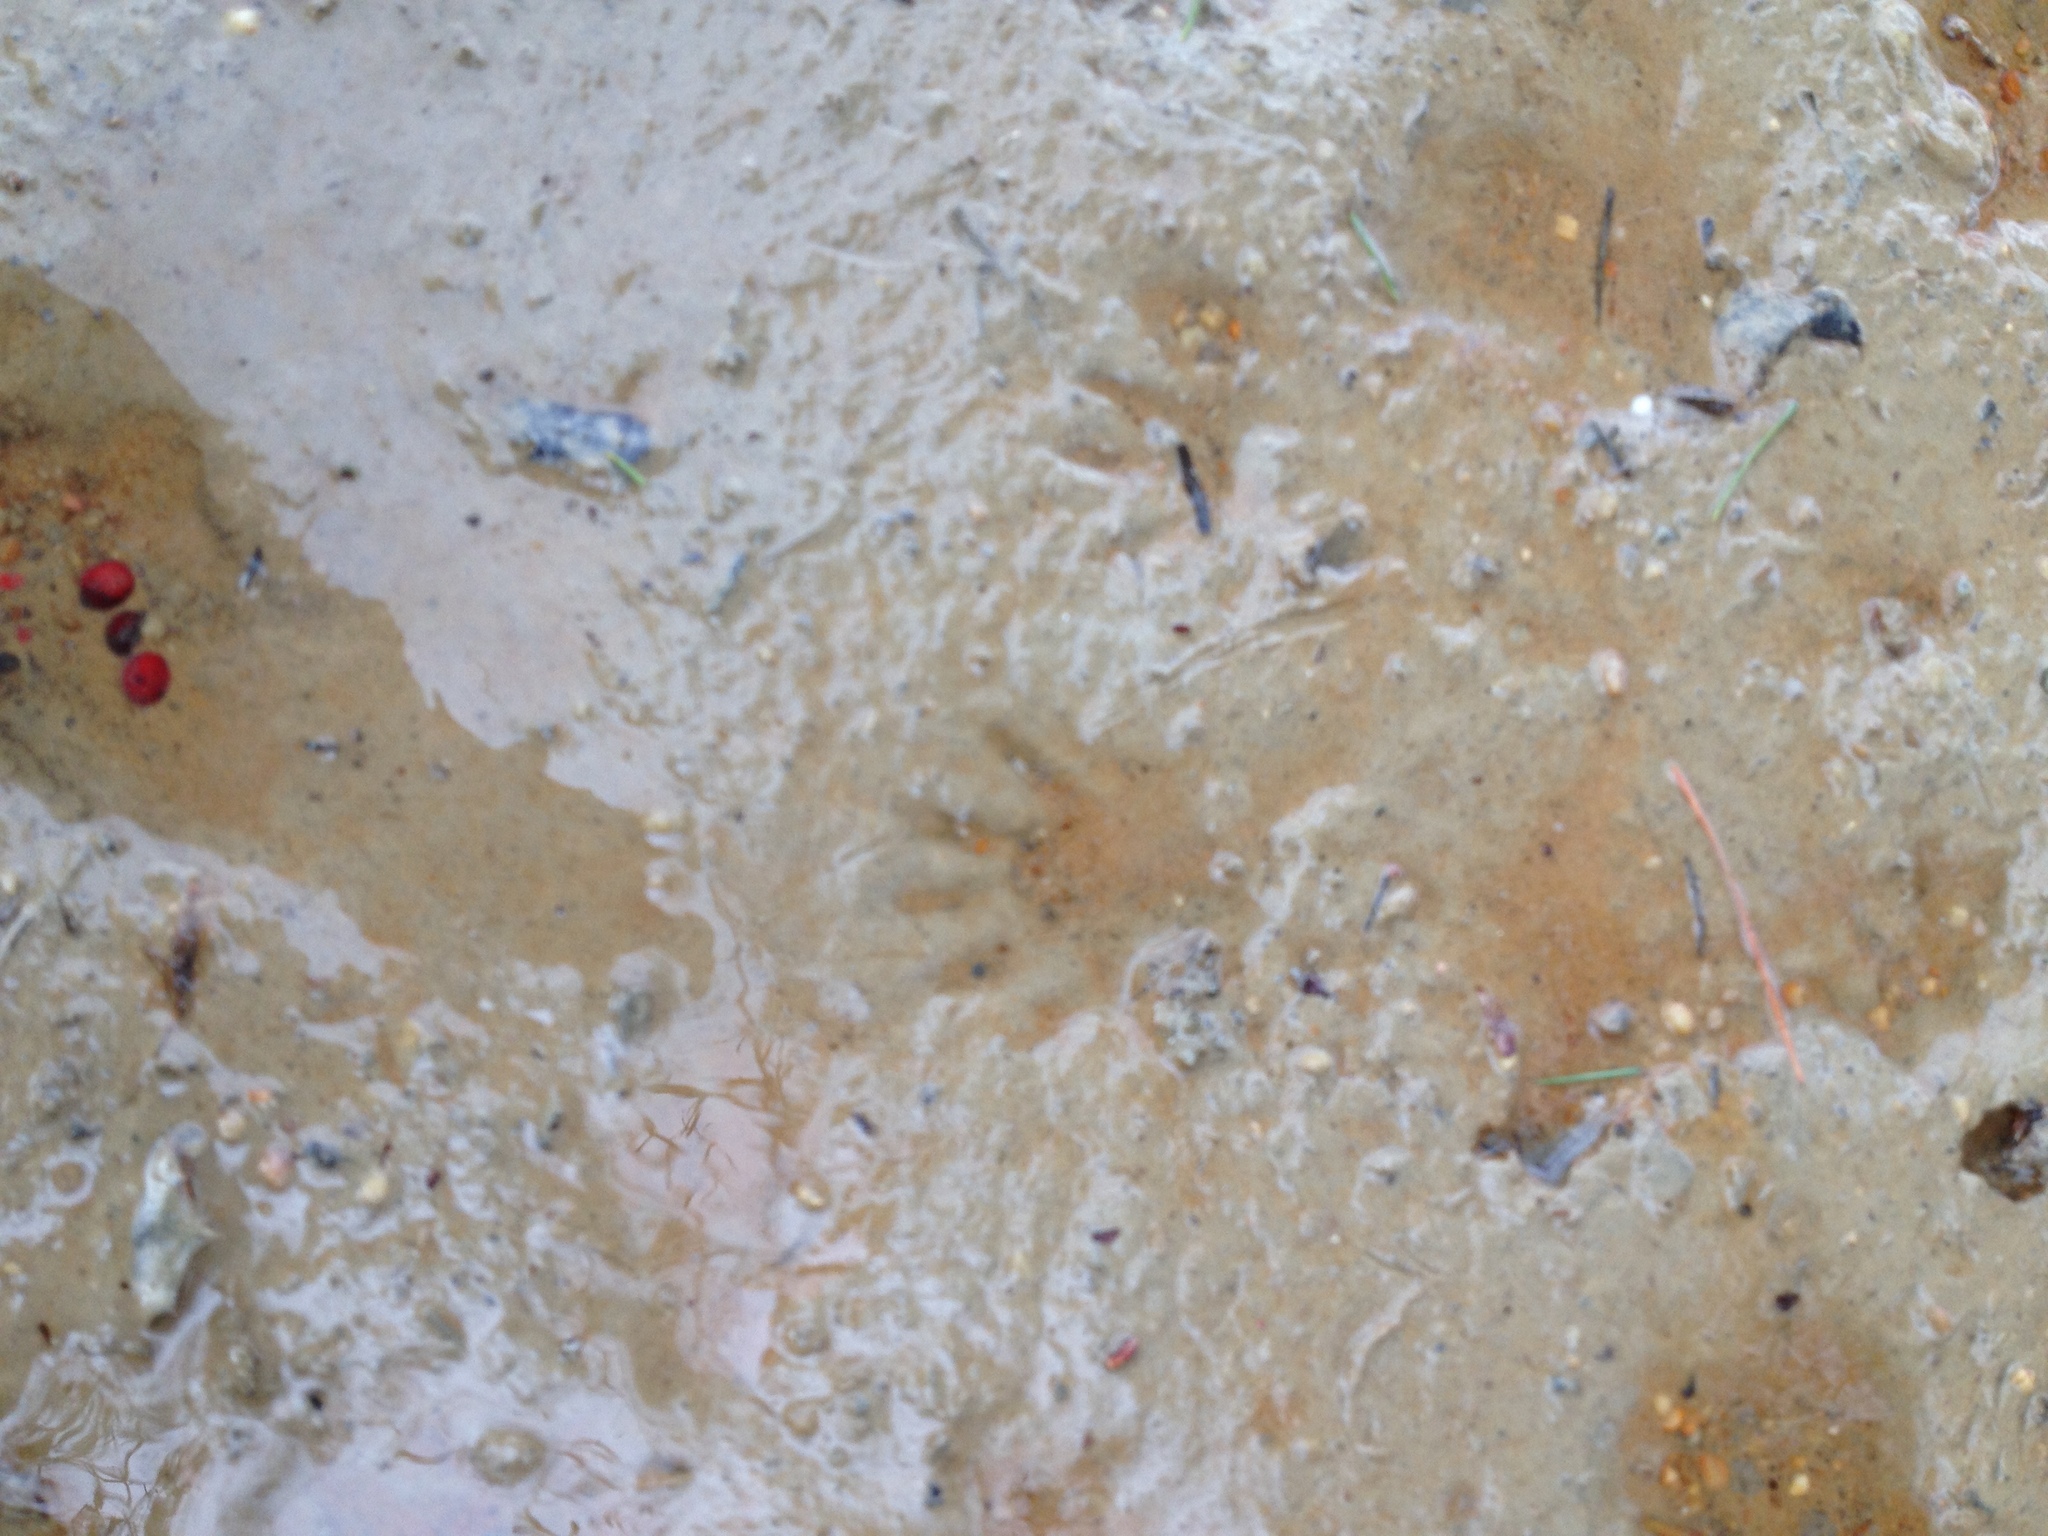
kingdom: Animalia
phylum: Chordata
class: Mammalia
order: Carnivora
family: Procyonidae
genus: Procyon
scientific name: Procyon lotor
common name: Raccoon
